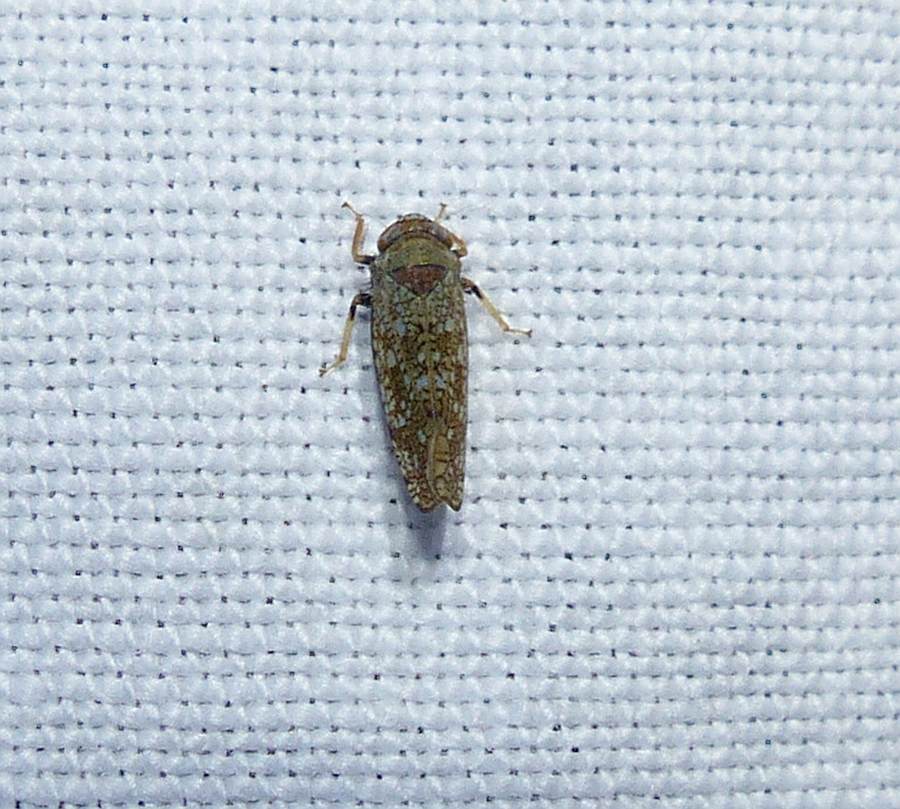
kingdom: Animalia
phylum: Arthropoda
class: Insecta
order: Hemiptera
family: Cicadellidae
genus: Orientus
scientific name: Orientus ishidae
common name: Japanese leafhopper
